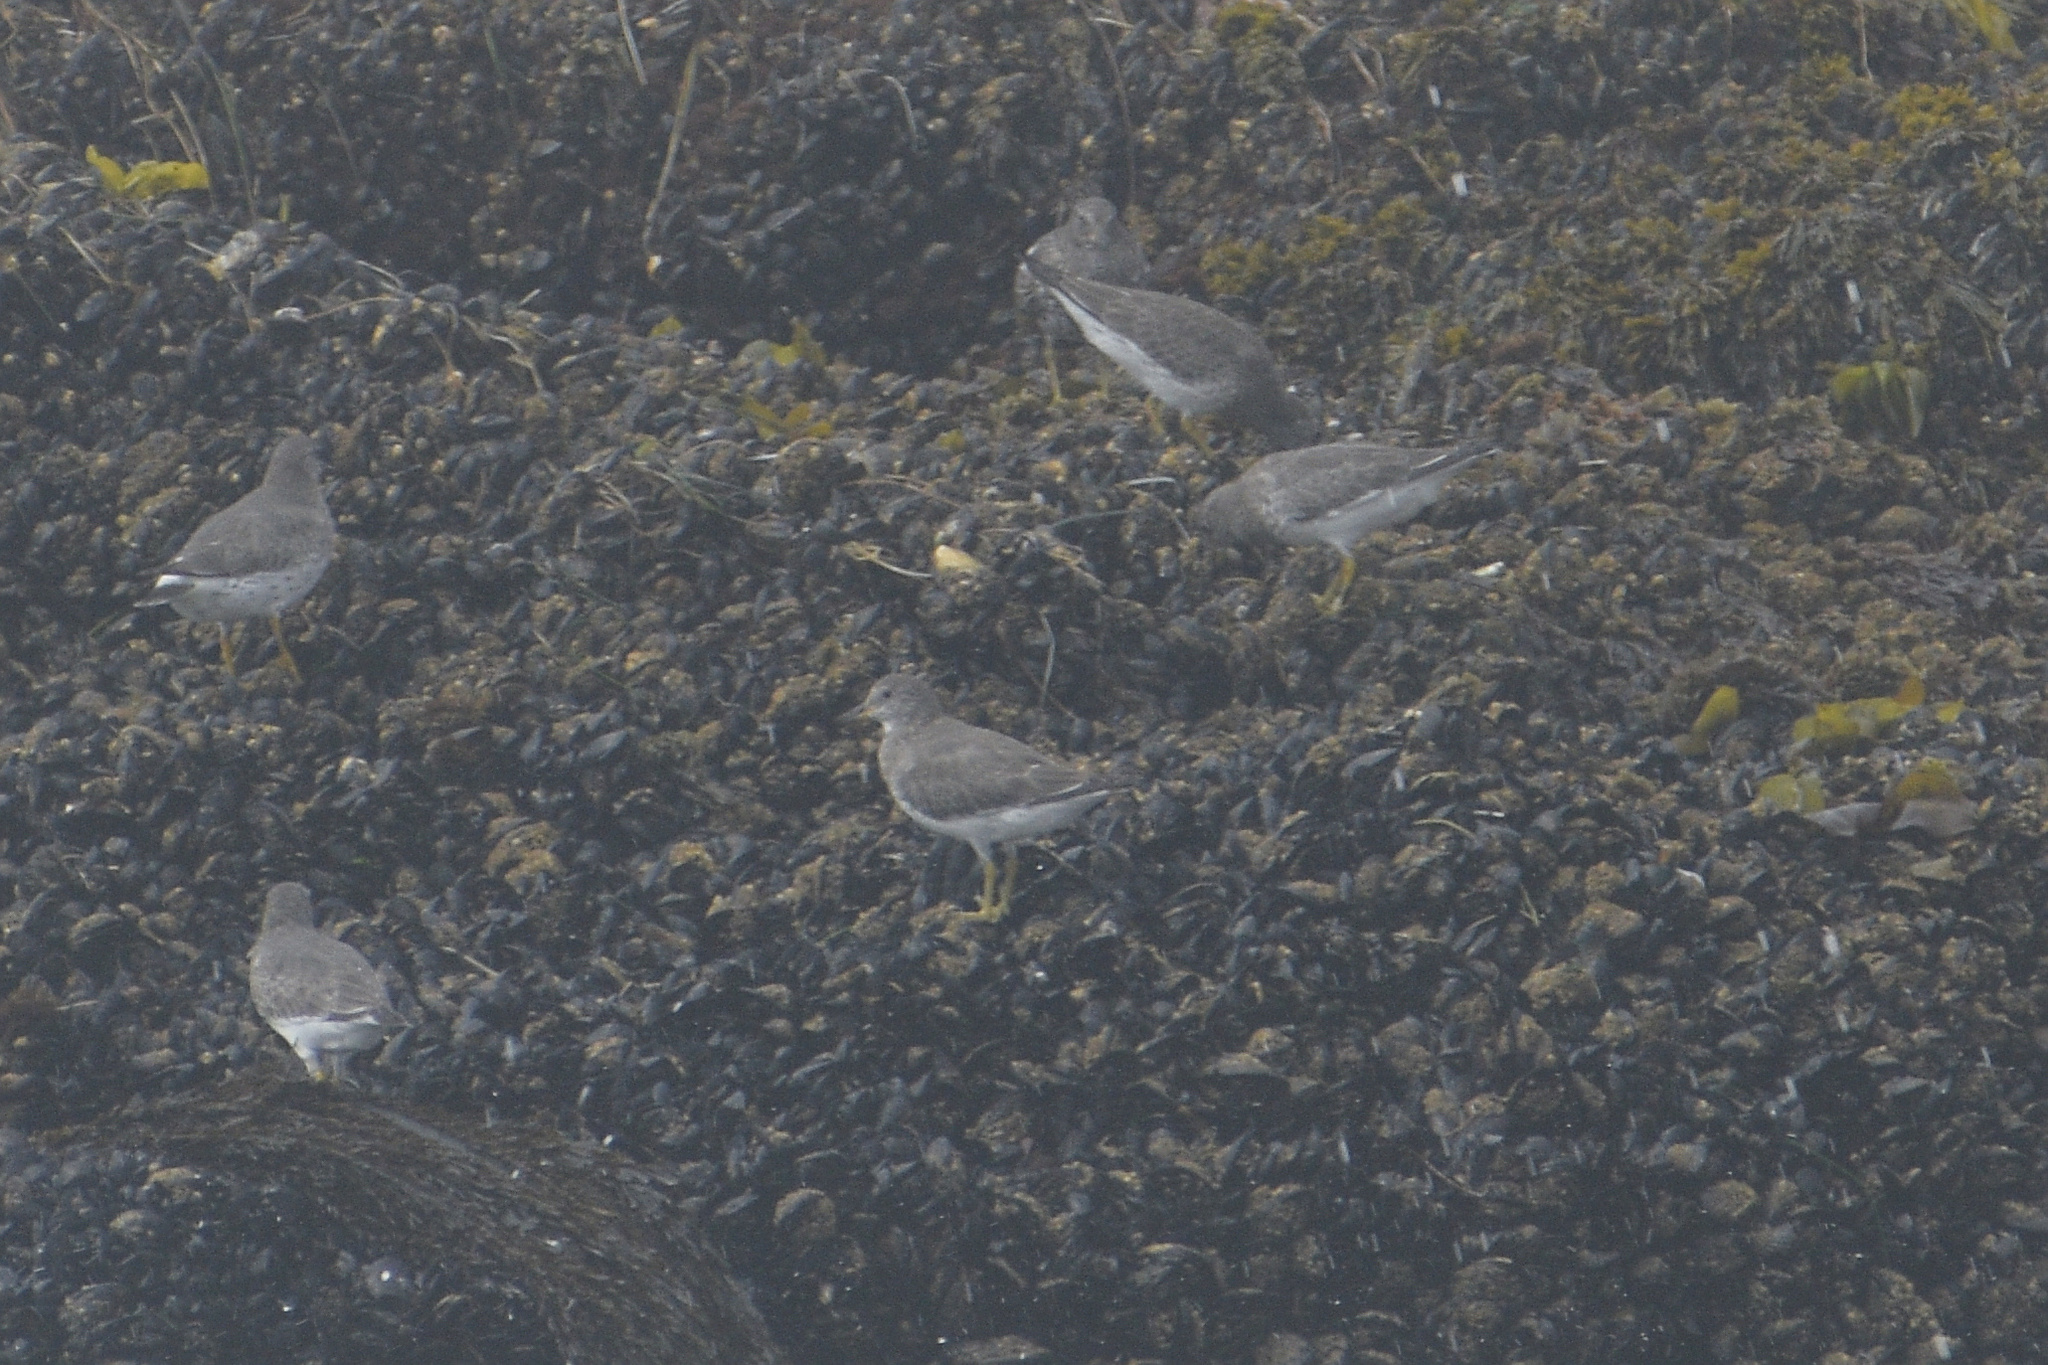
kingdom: Animalia
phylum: Chordata
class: Aves
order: Charadriiformes
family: Scolopacidae
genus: Calidris
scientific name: Calidris virgata
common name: Surfbird
